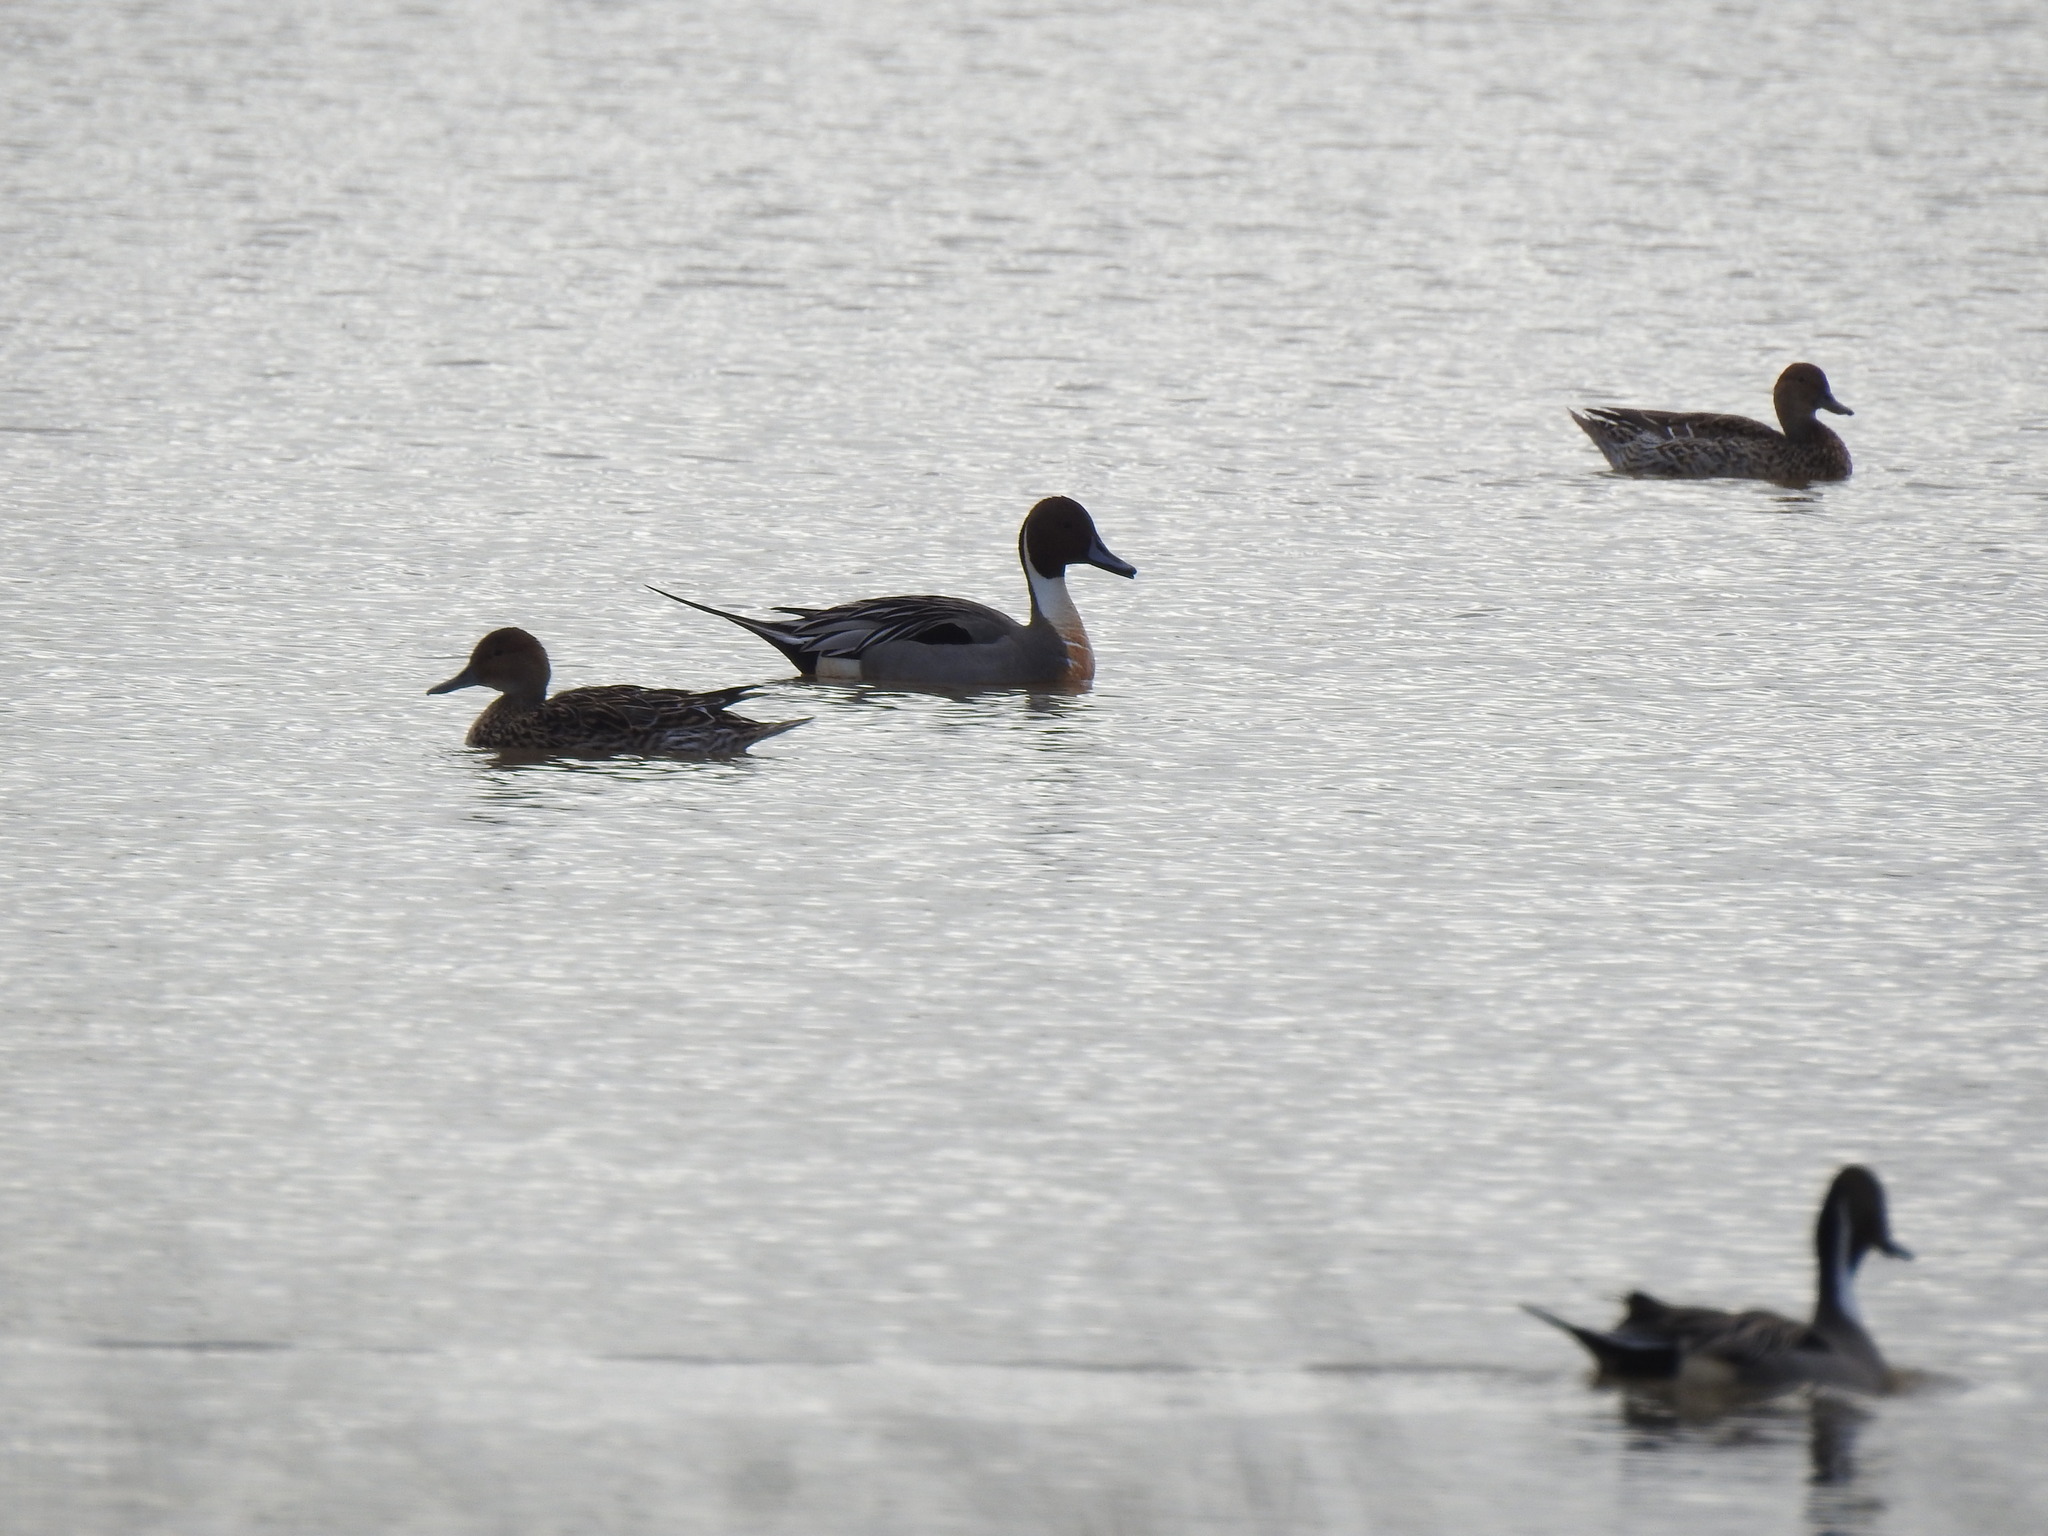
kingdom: Animalia
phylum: Chordata
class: Aves
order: Anseriformes
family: Anatidae
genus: Anas
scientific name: Anas acuta
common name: Northern pintail
